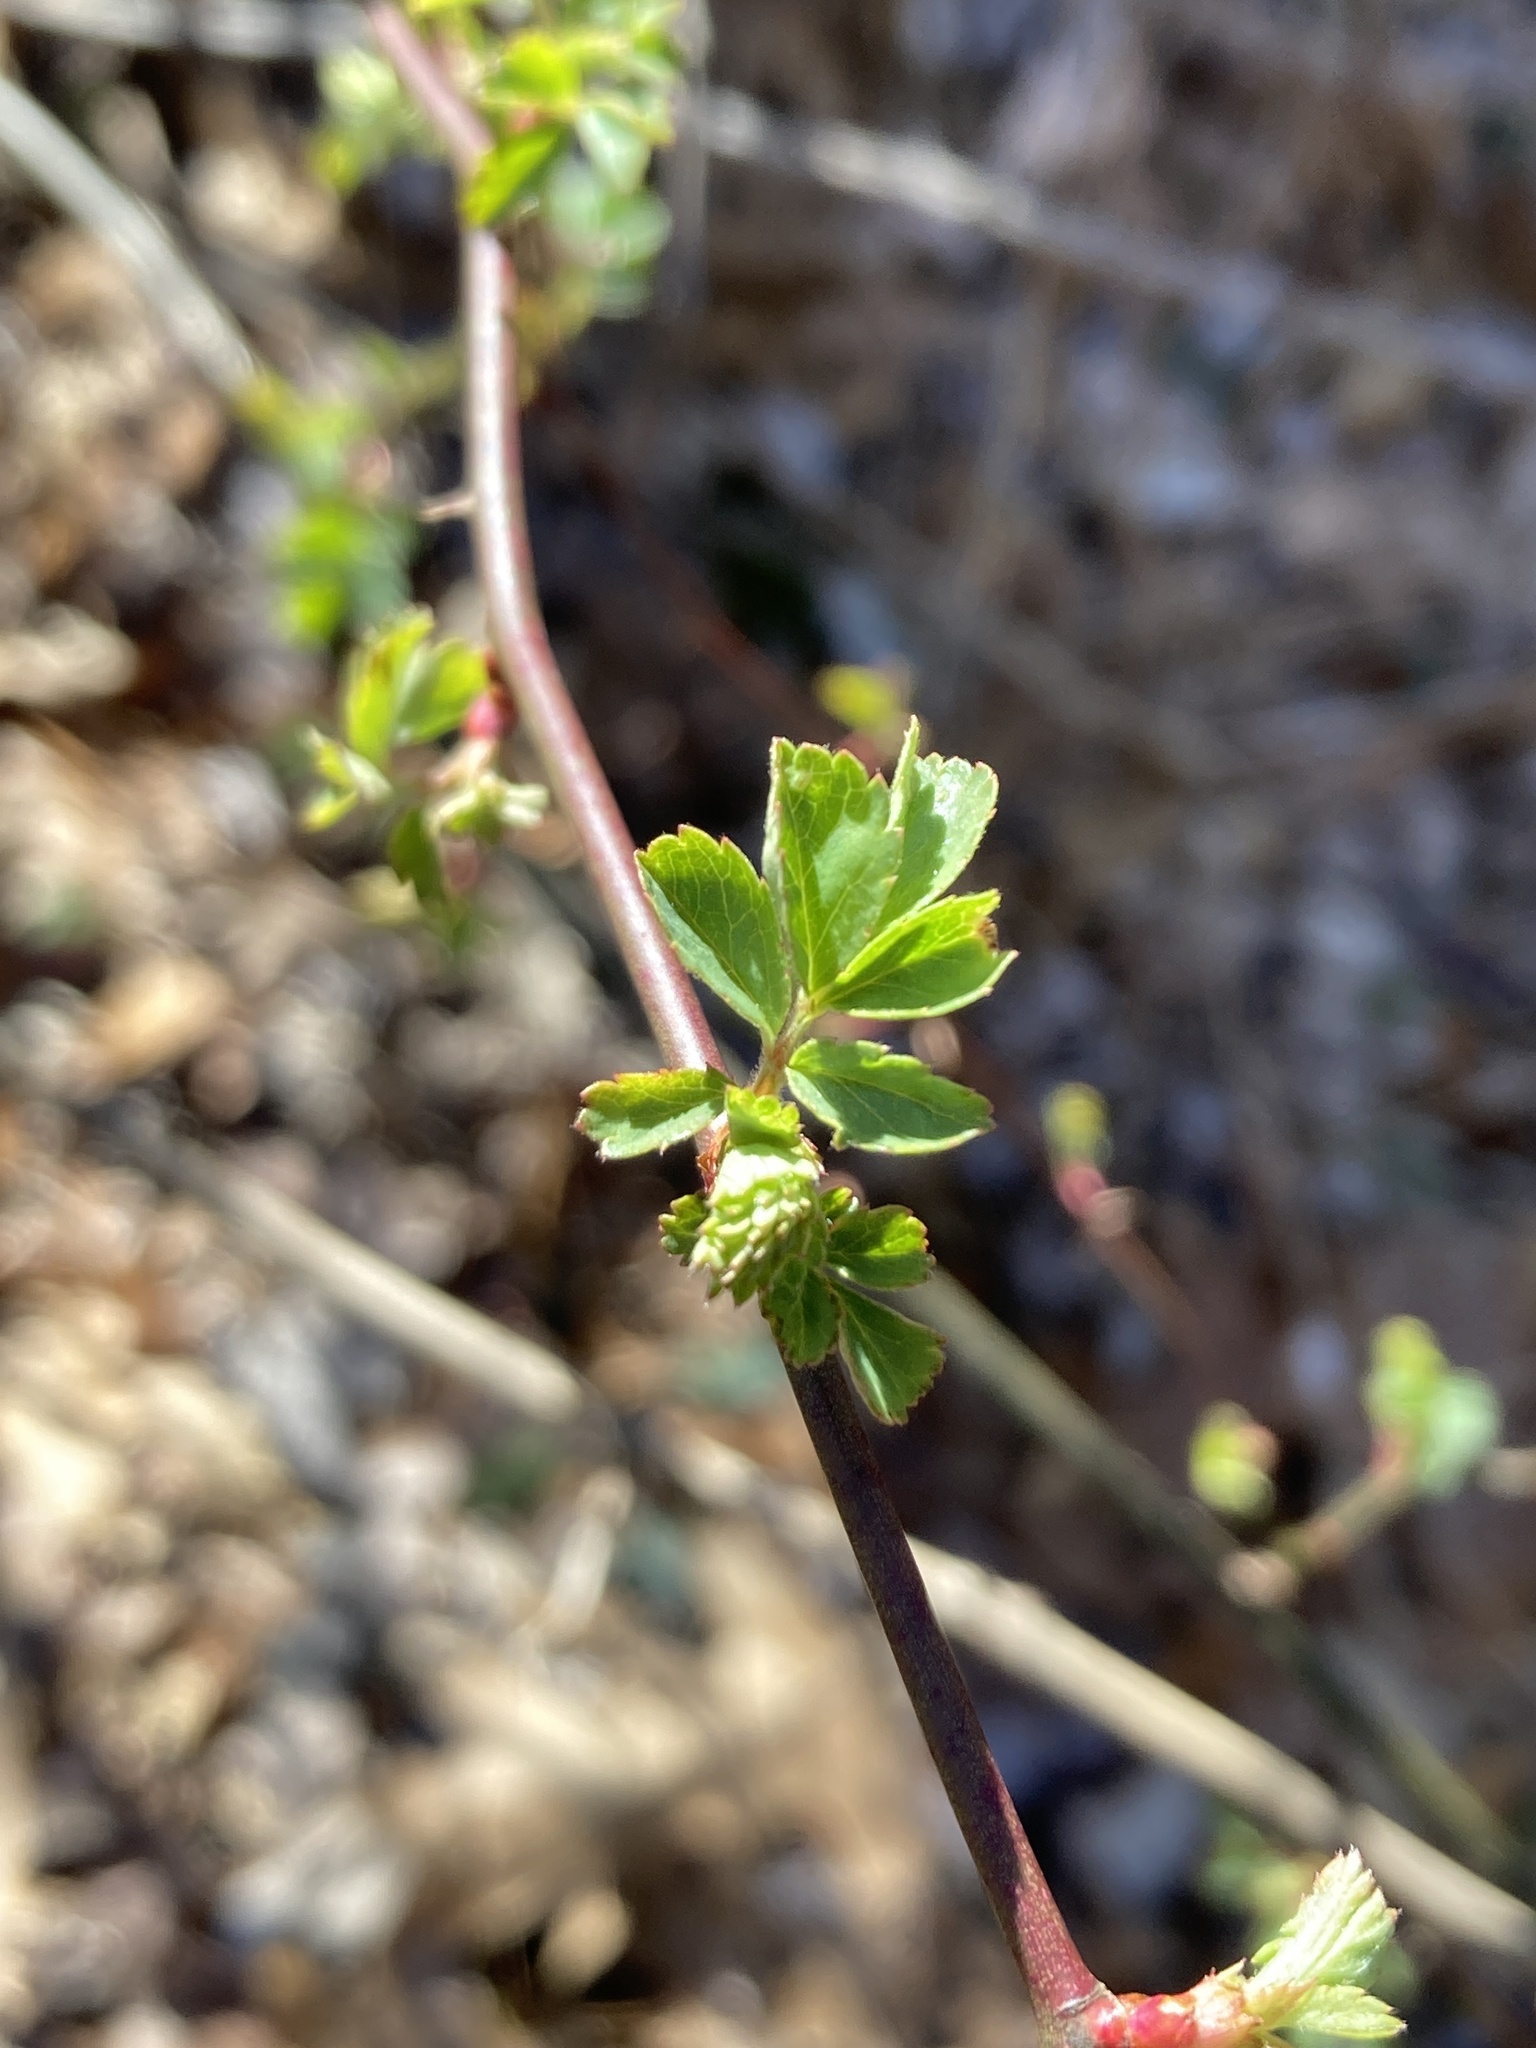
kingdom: Plantae
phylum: Tracheophyta
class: Magnoliopsida
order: Rosales
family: Rosaceae
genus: Rosa
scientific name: Rosa multiflora
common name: Multiflora rose
